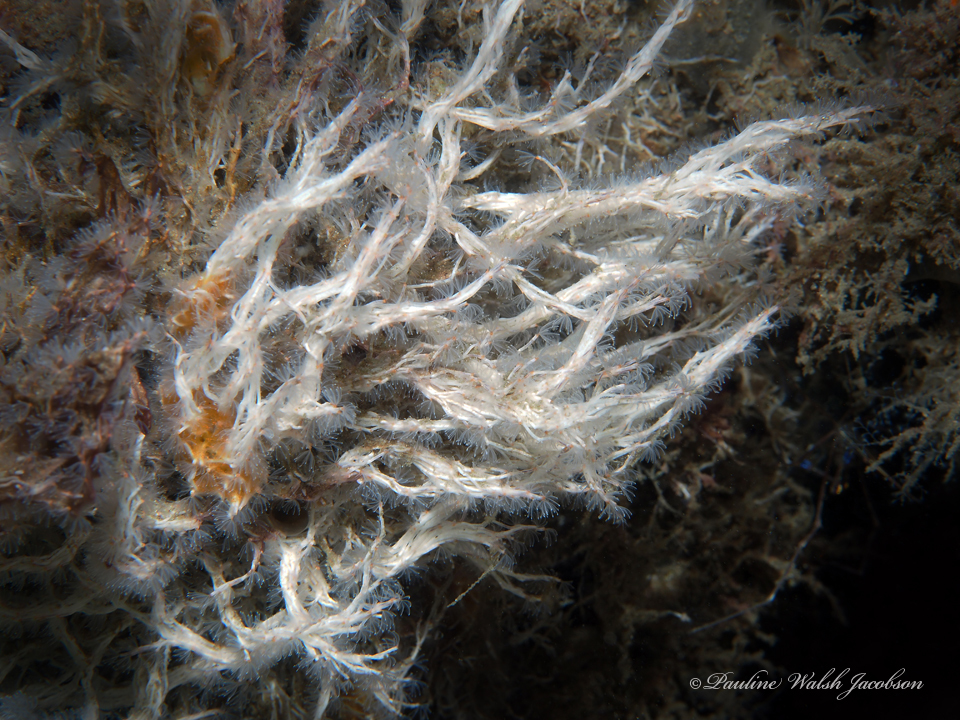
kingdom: Animalia
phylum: Annelida
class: Polychaeta
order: Sabellida
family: Serpulidae
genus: Salmacina
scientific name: Salmacina huxleyi
